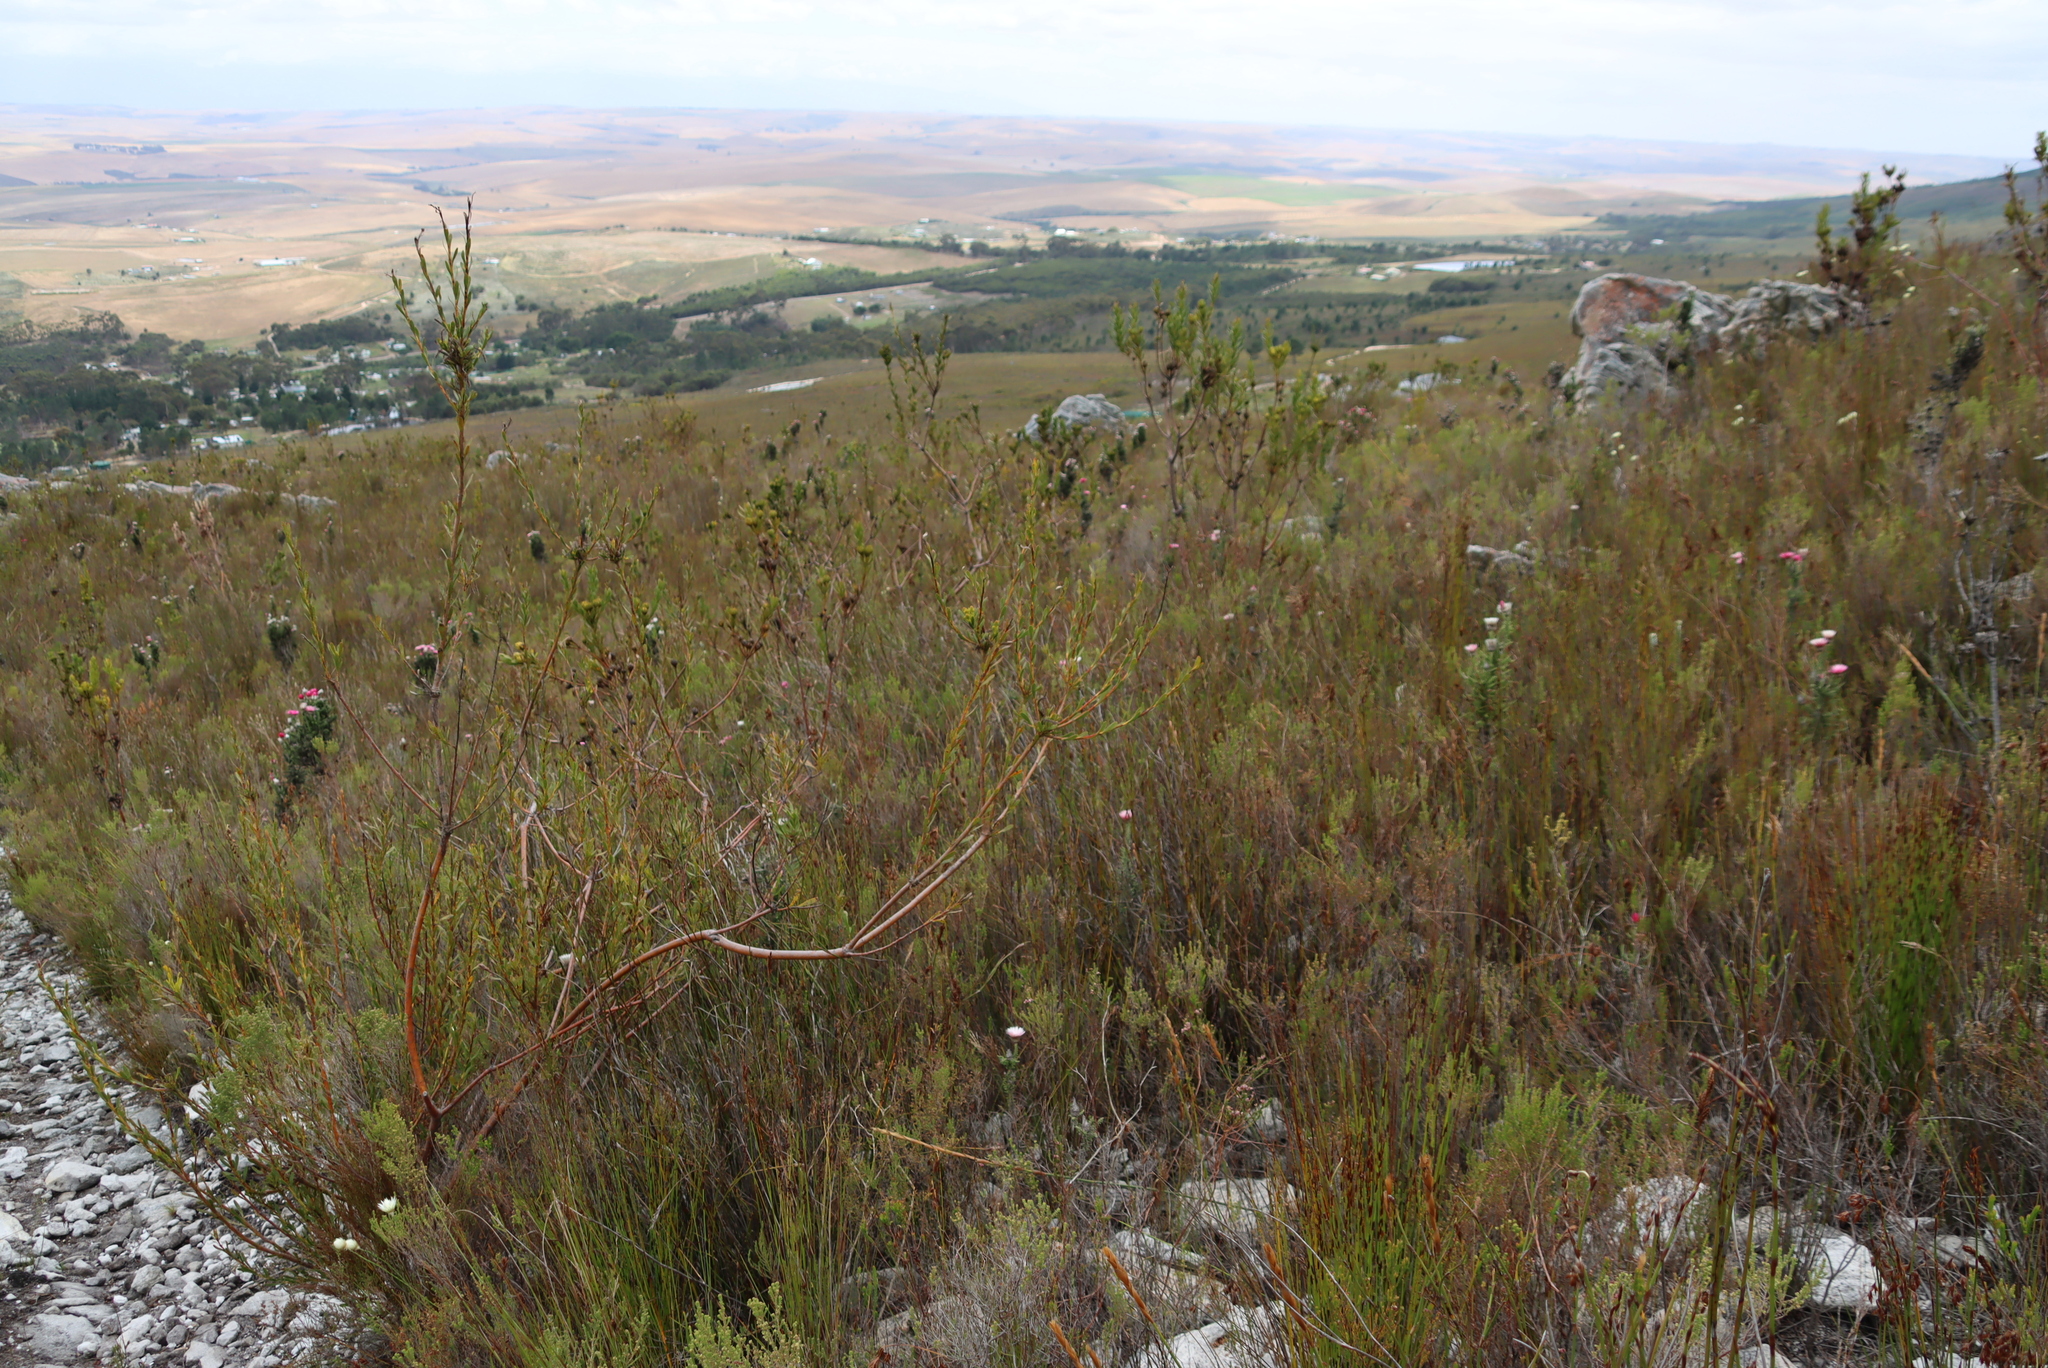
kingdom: Plantae
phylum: Tracheophyta
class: Magnoliopsida
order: Proteales
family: Proteaceae
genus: Aulax
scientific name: Aulax umbellata
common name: Broad-leaf featherbush
